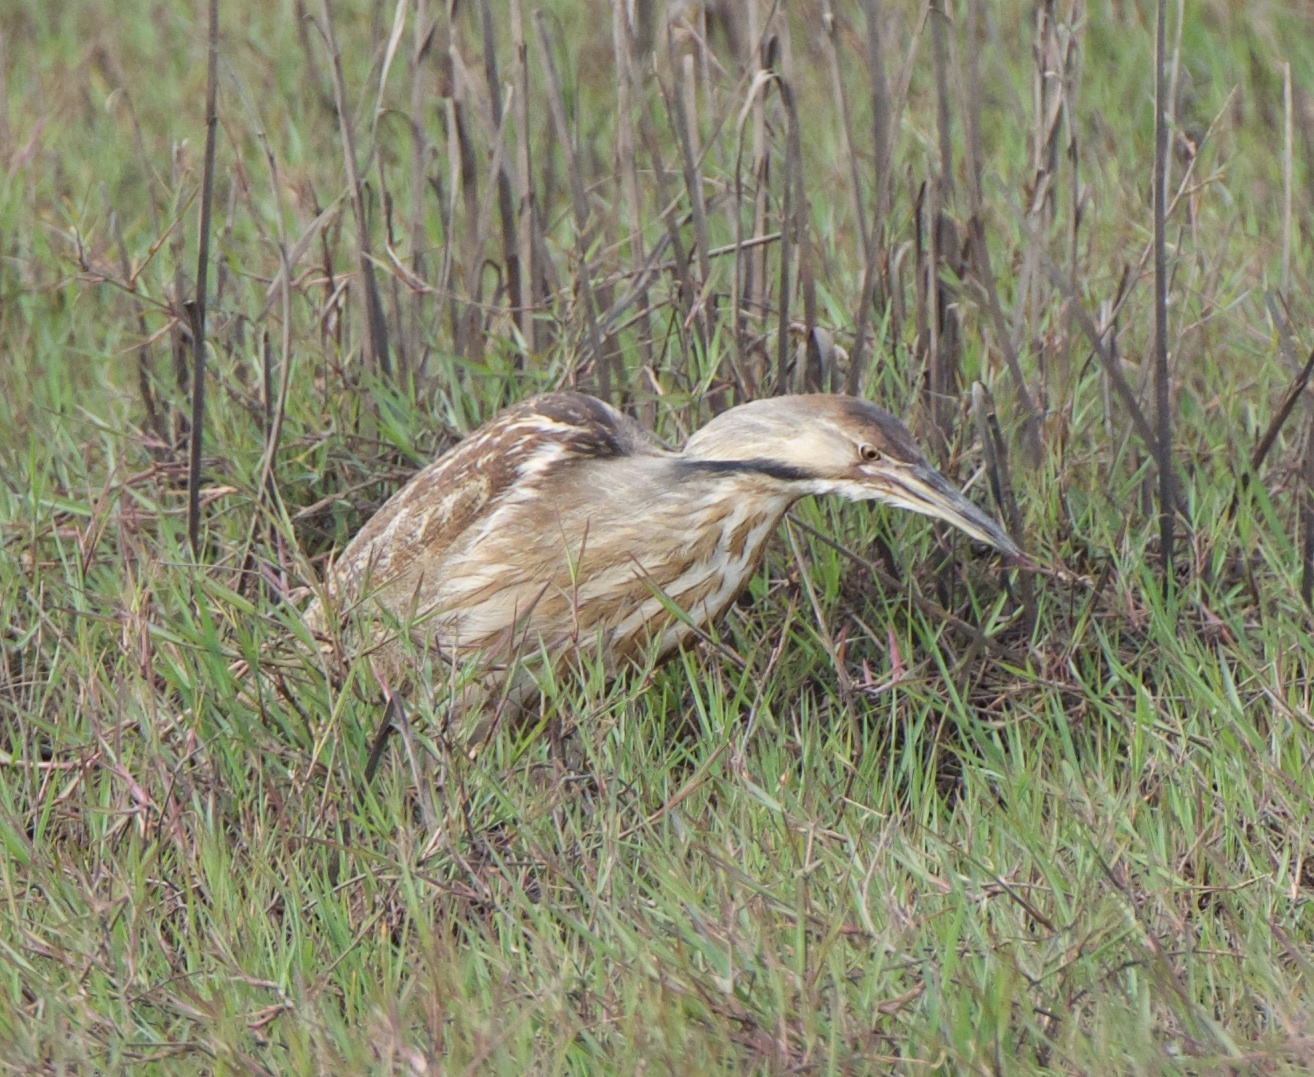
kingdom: Animalia
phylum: Chordata
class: Aves
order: Pelecaniformes
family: Ardeidae
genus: Botaurus
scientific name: Botaurus lentiginosus
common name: American bittern
